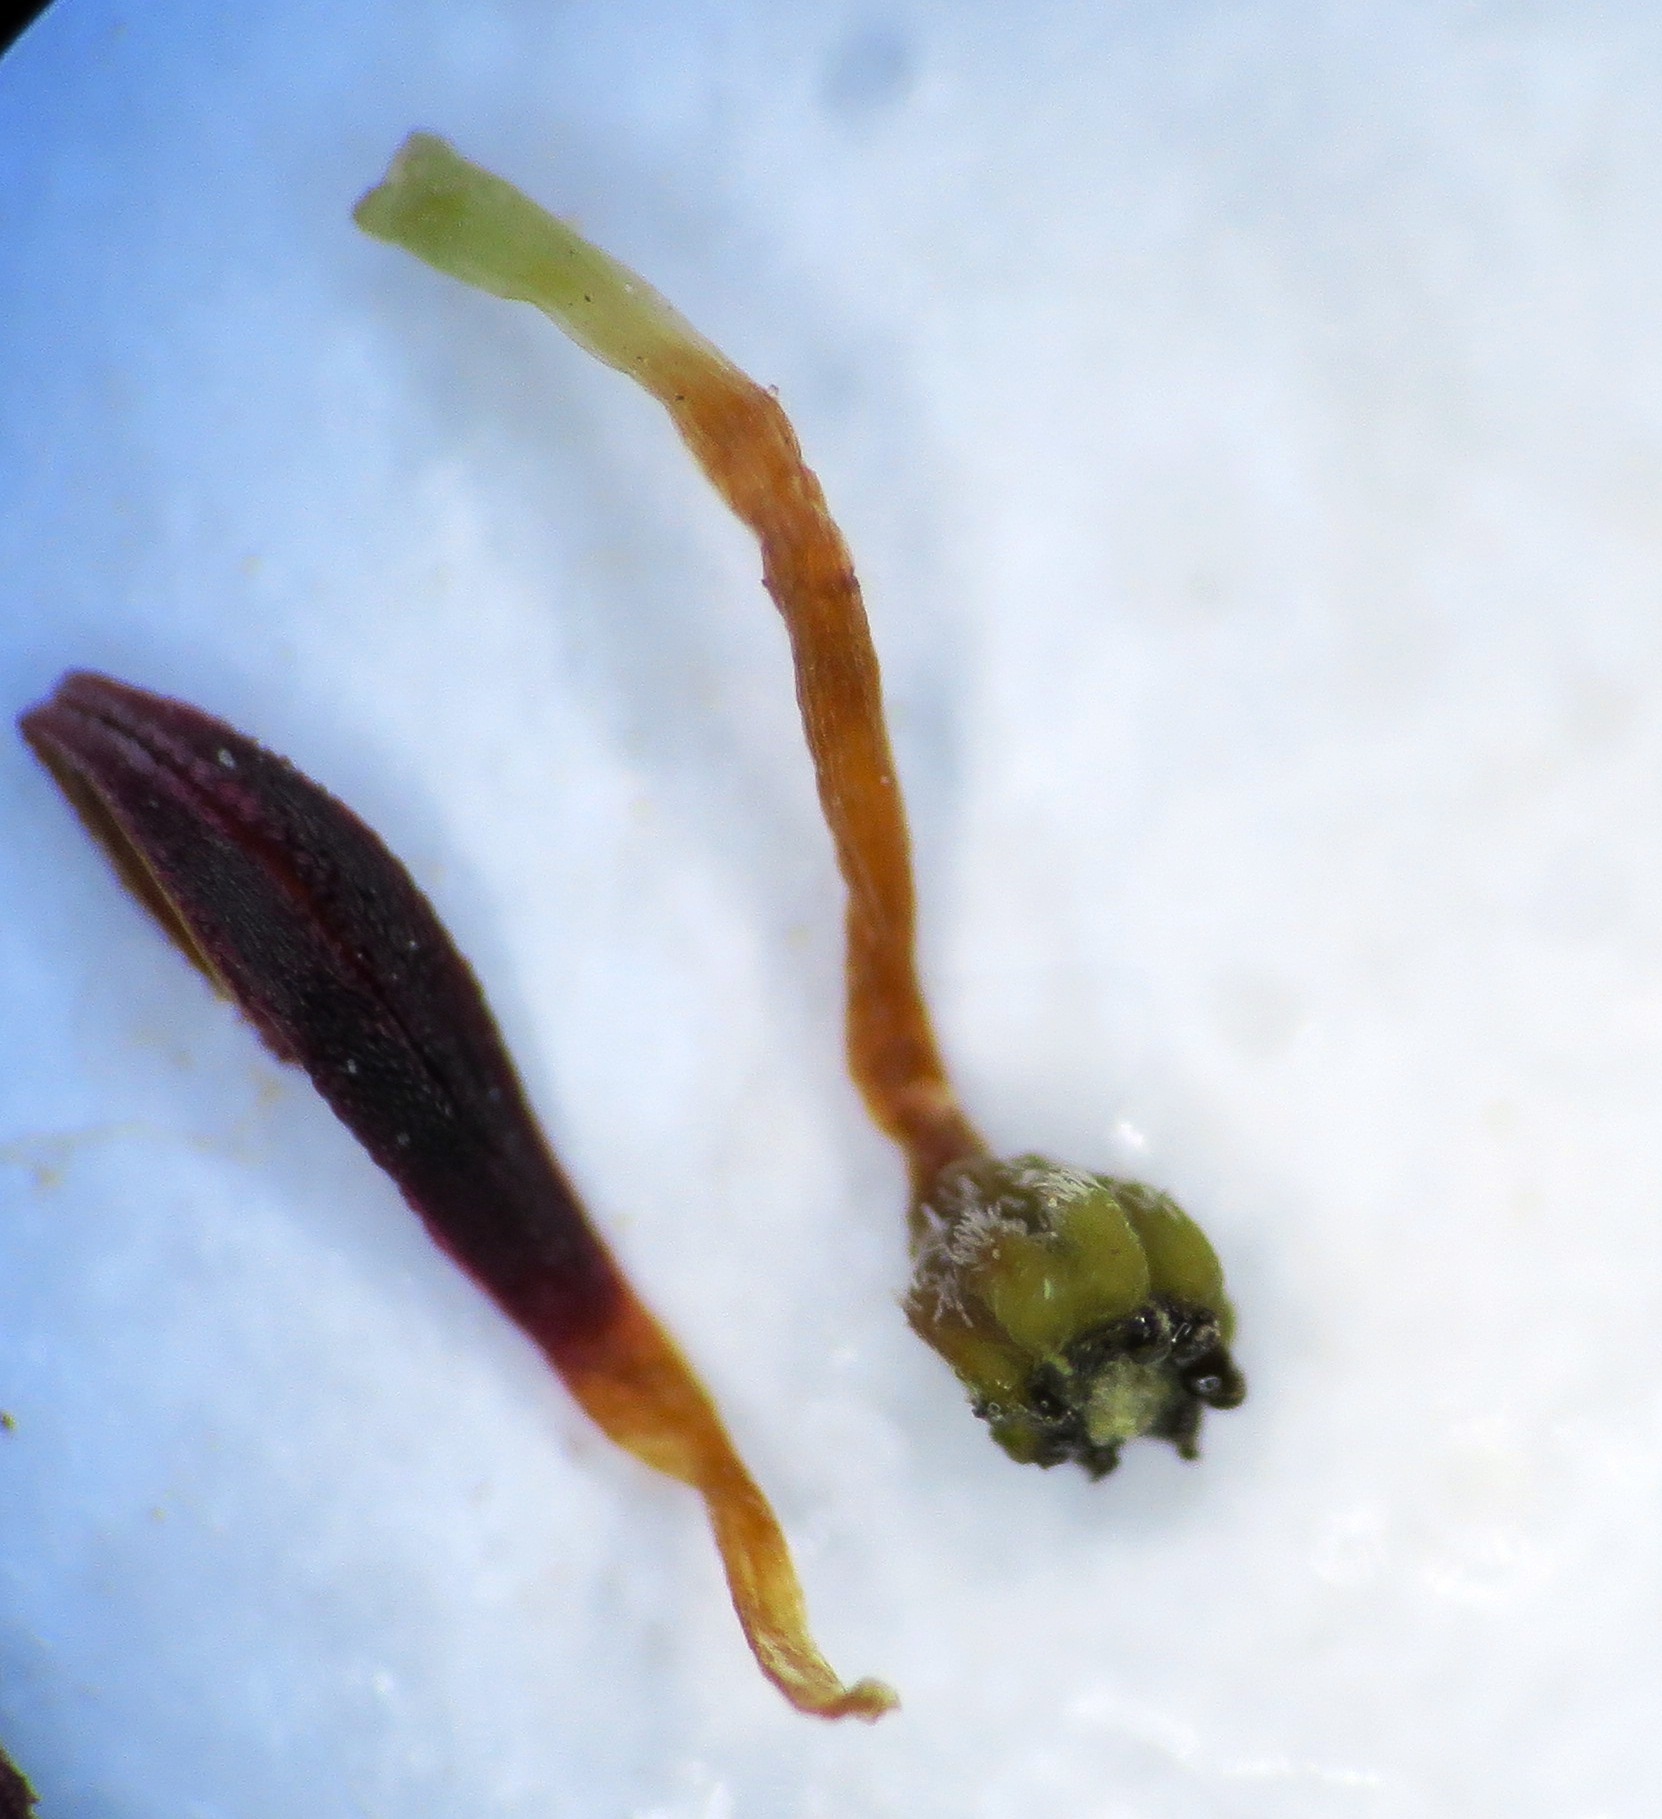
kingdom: Plantae
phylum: Tracheophyta
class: Magnoliopsida
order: Ericales
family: Ericaceae
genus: Erica
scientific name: Erica suffulta
